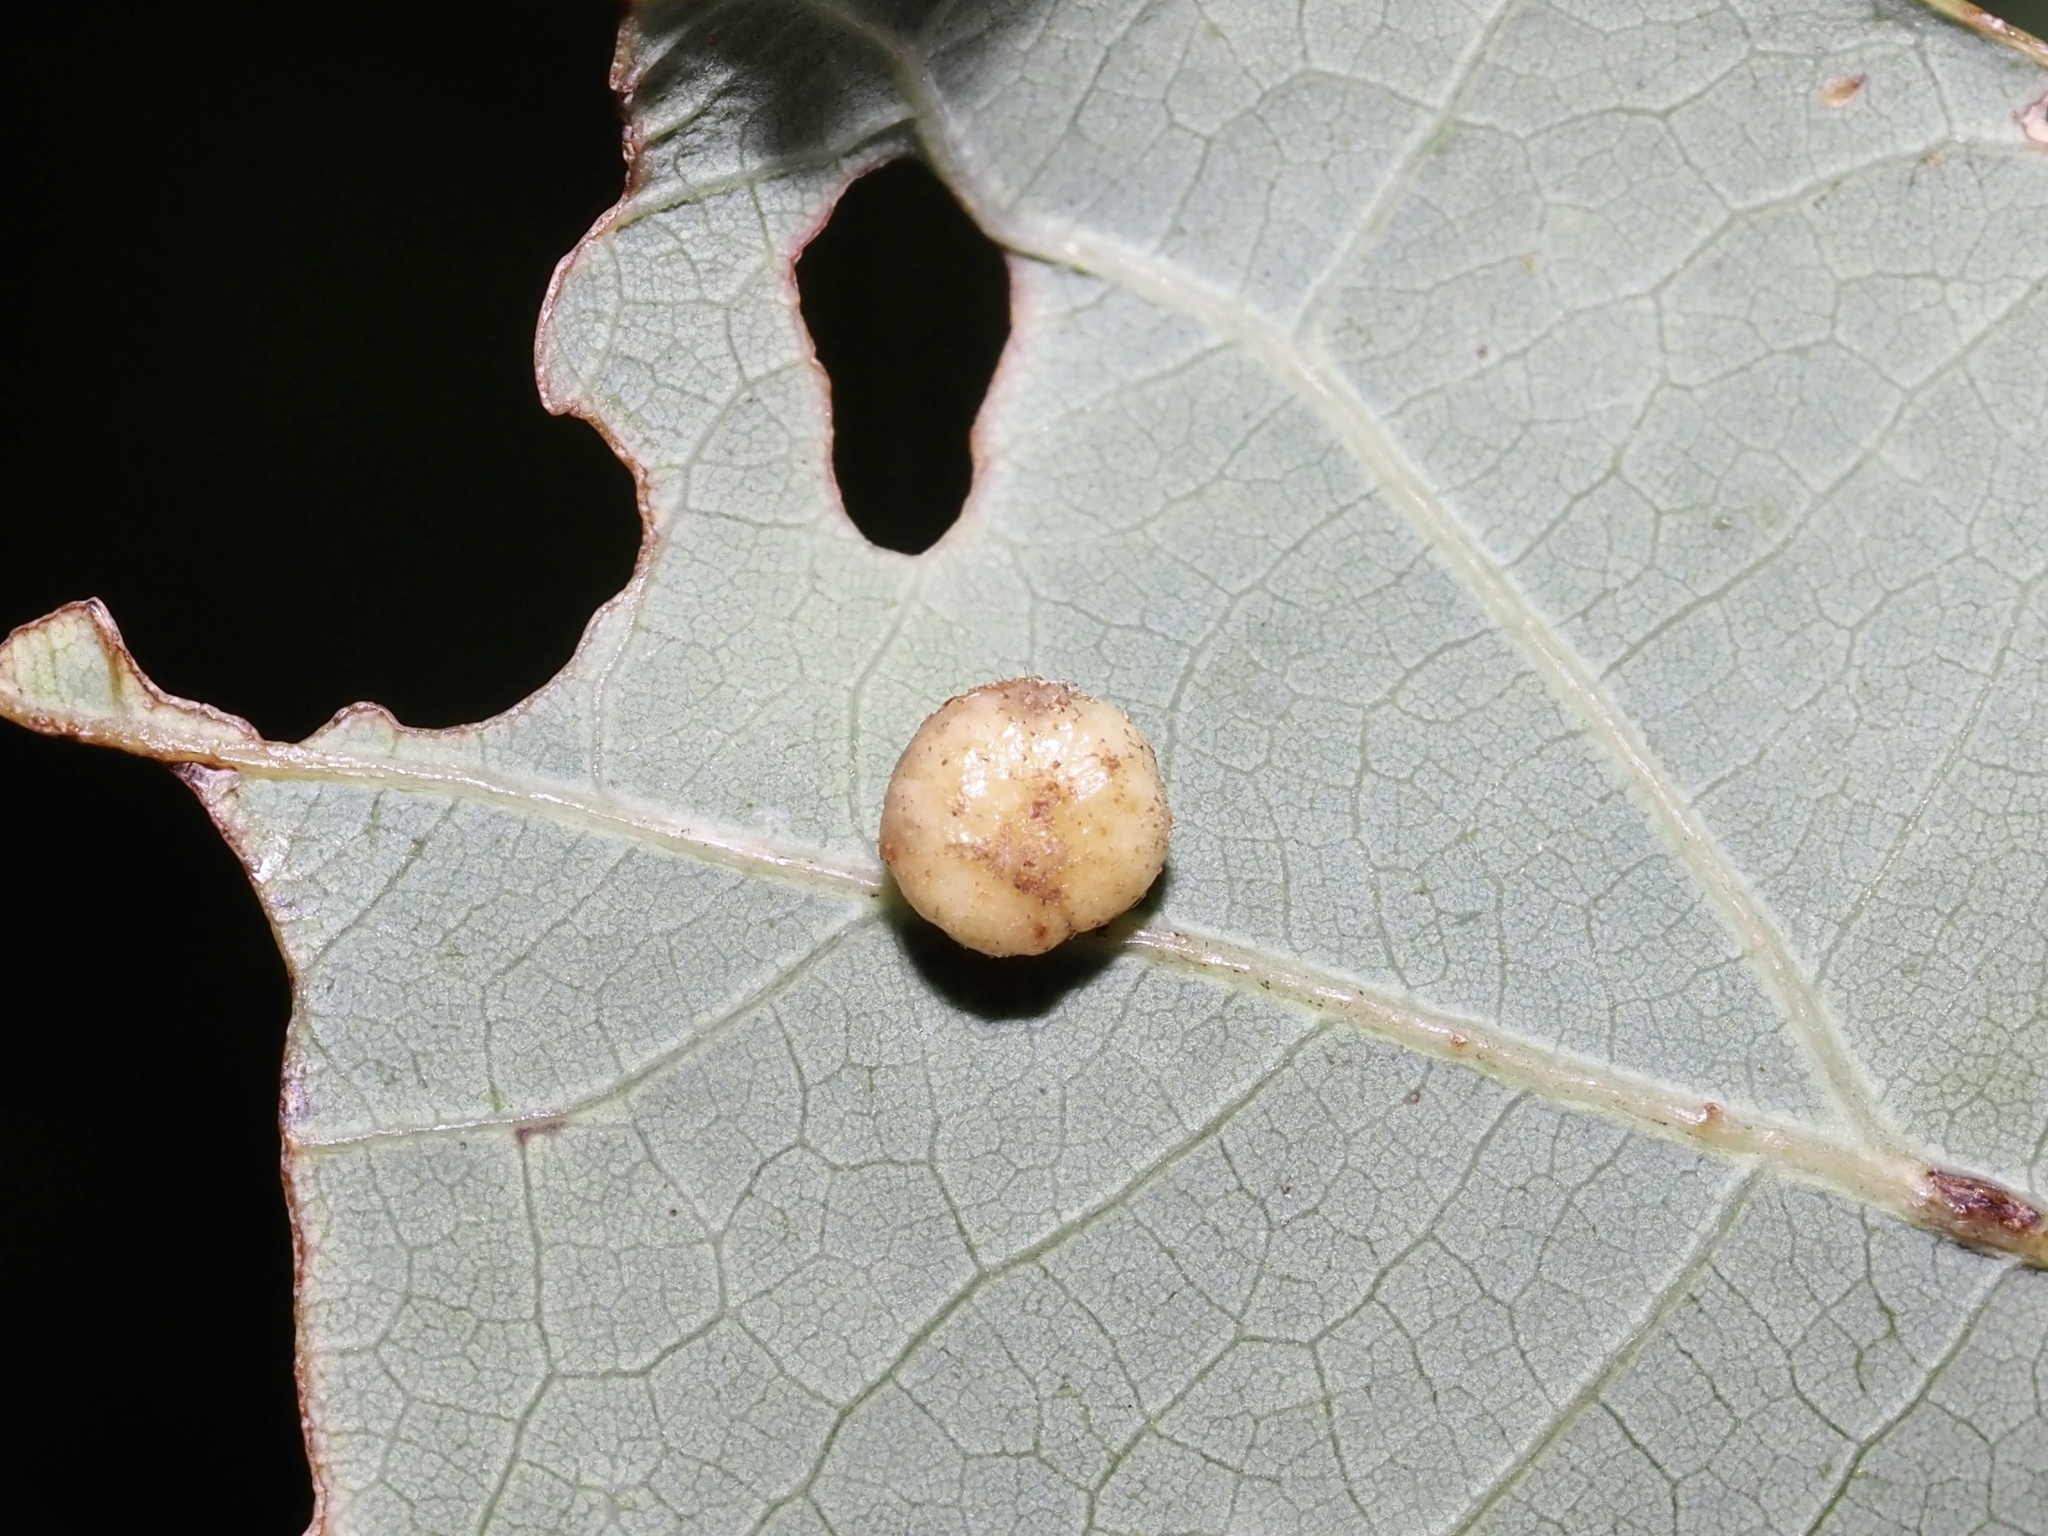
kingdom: Animalia
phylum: Arthropoda
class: Insecta
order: Hymenoptera
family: Cynipidae
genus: Philonix
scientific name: Philonix fulvicollis
